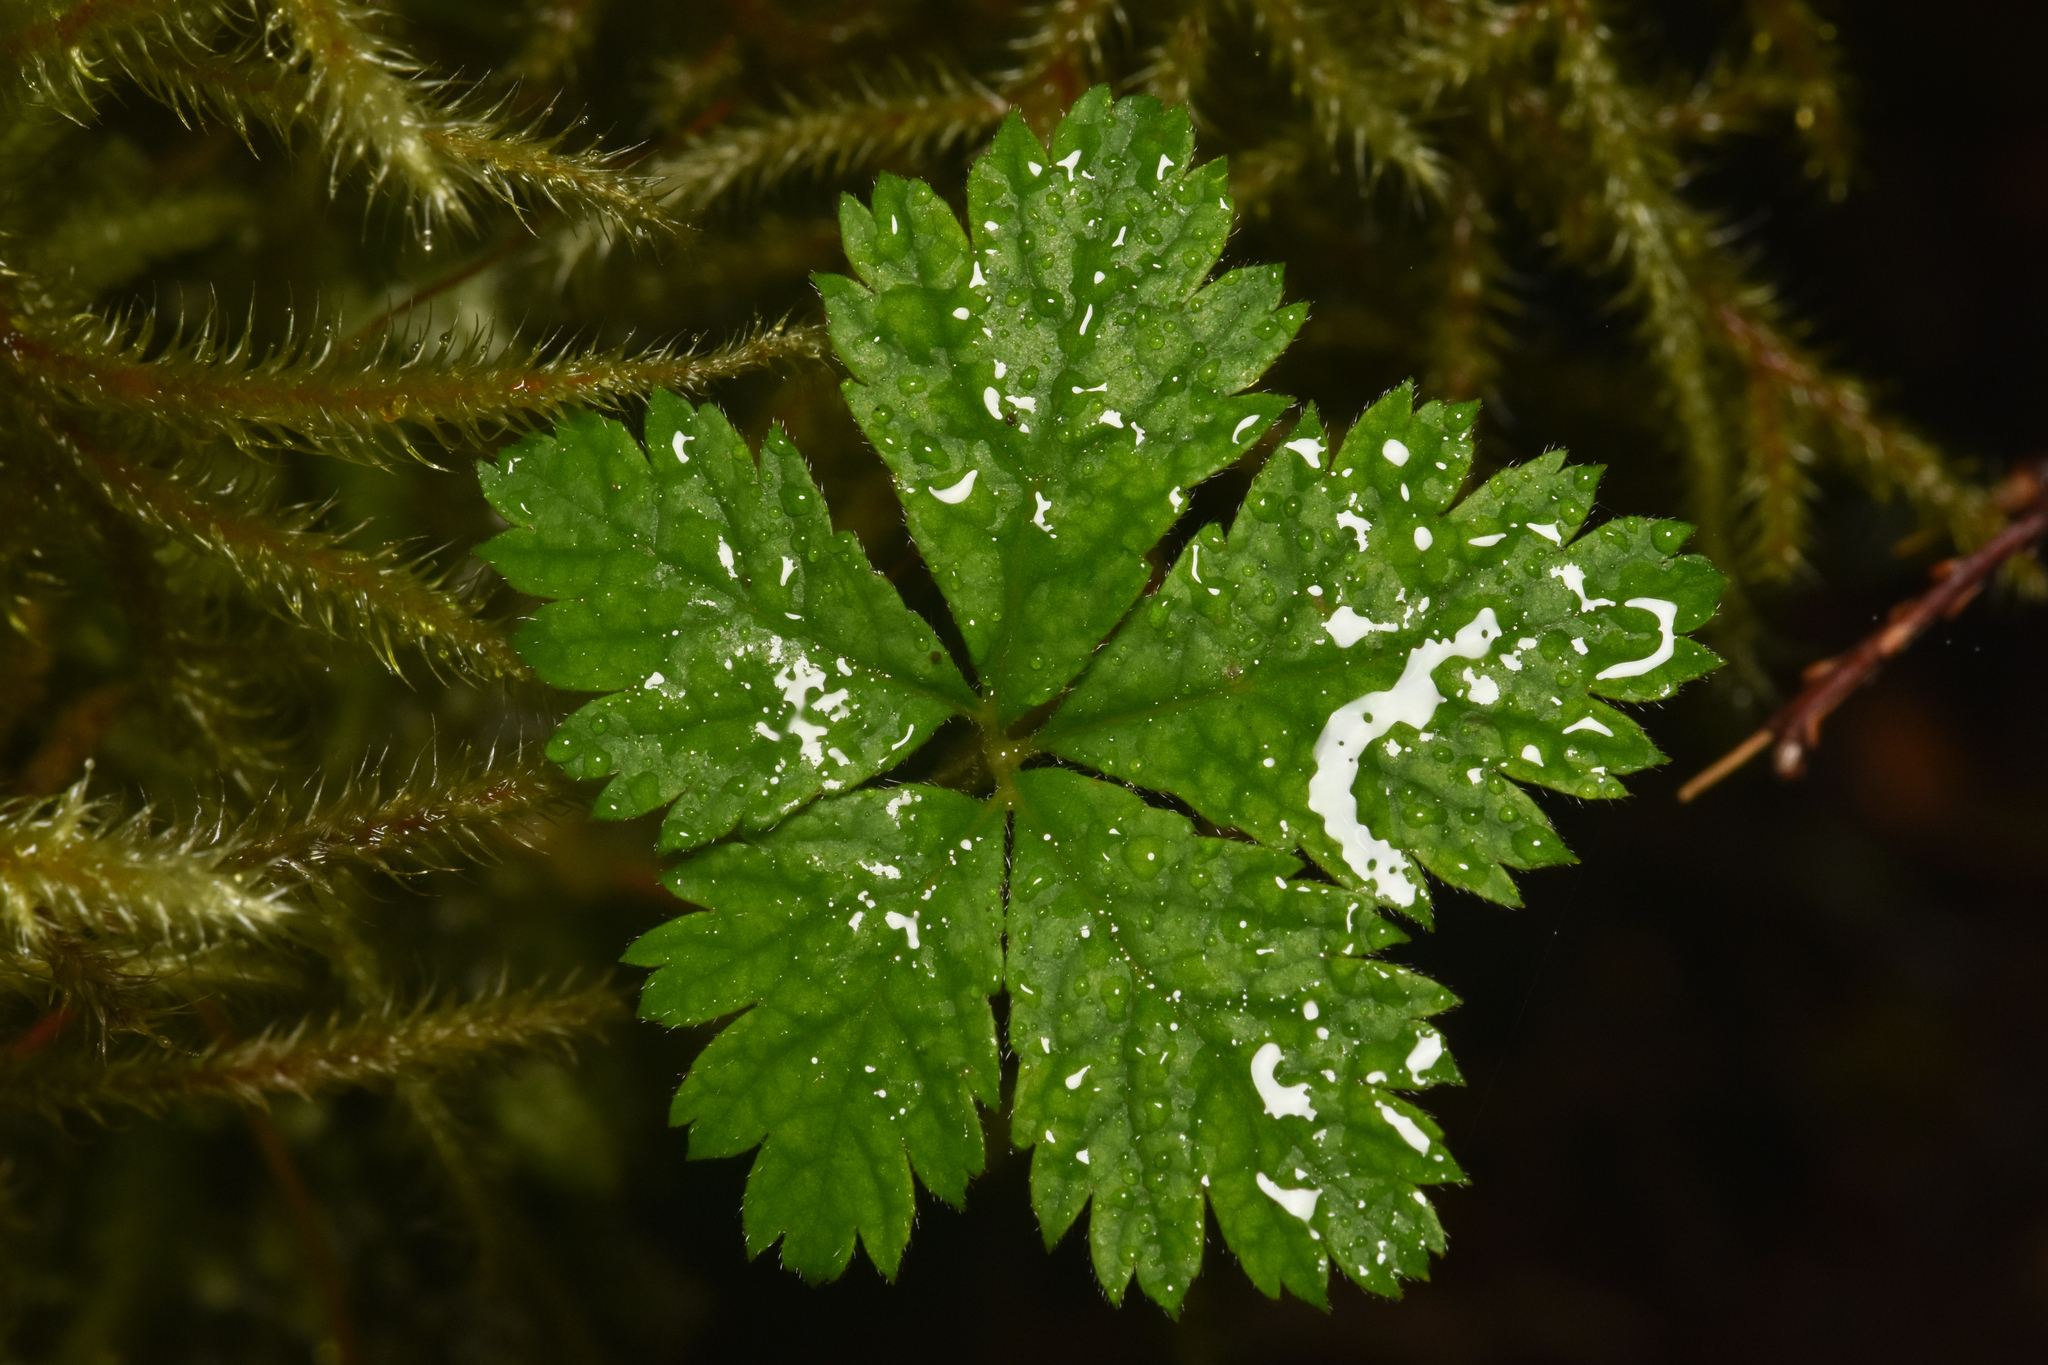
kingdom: Plantae
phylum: Tracheophyta
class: Magnoliopsida
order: Rosales
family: Rosaceae
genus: Rubus
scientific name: Rubus pedatus
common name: Creeping raspberry
